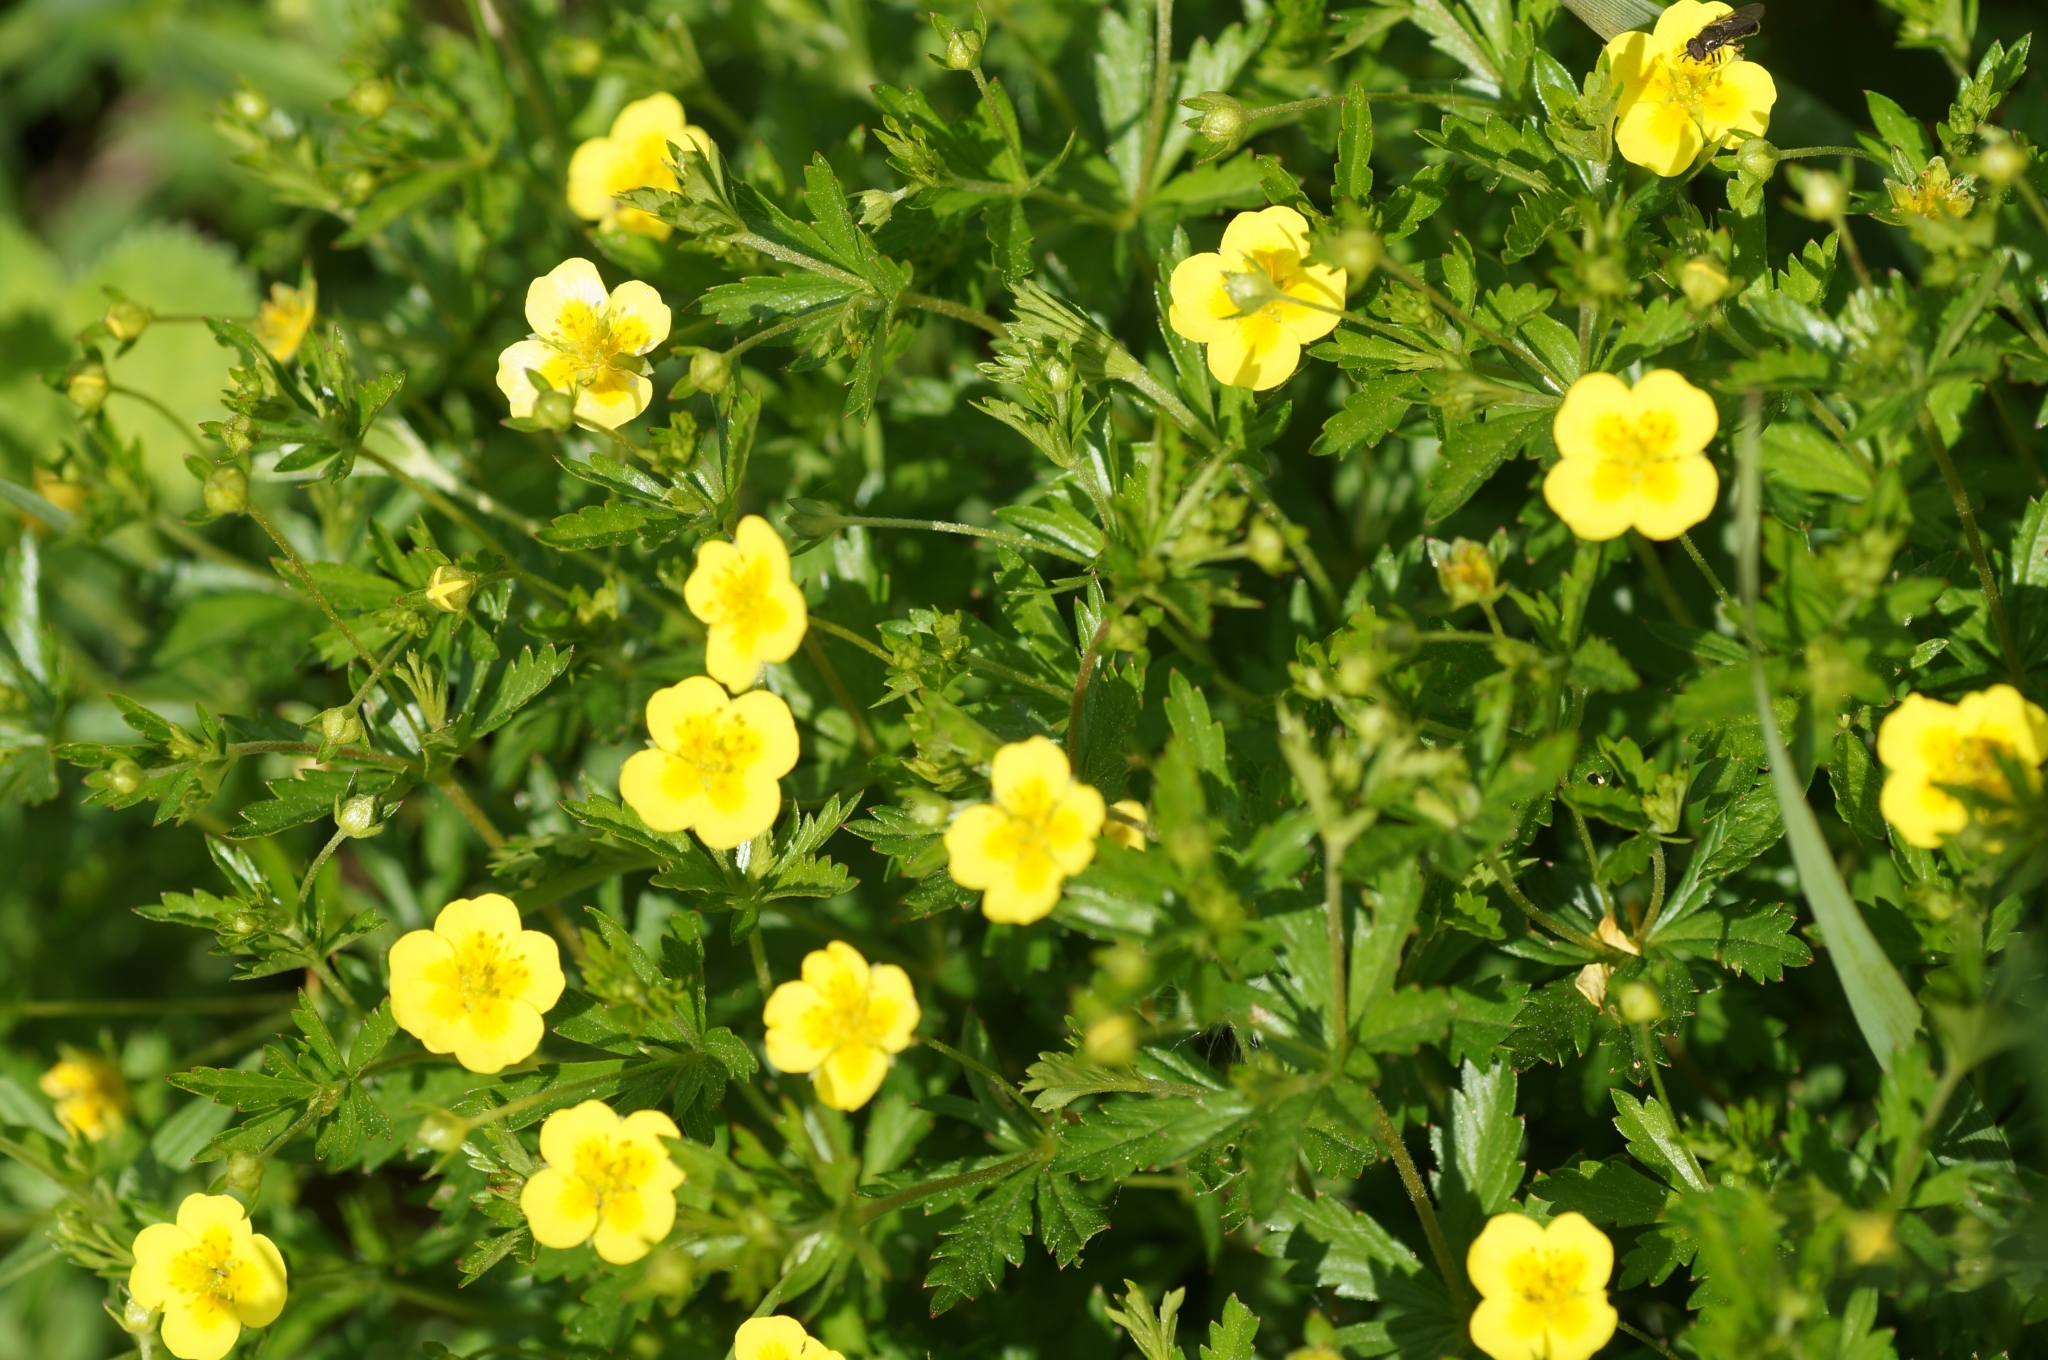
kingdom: Plantae
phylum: Tracheophyta
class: Magnoliopsida
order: Rosales
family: Rosaceae
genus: Potentilla
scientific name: Potentilla erecta
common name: Tormentil
